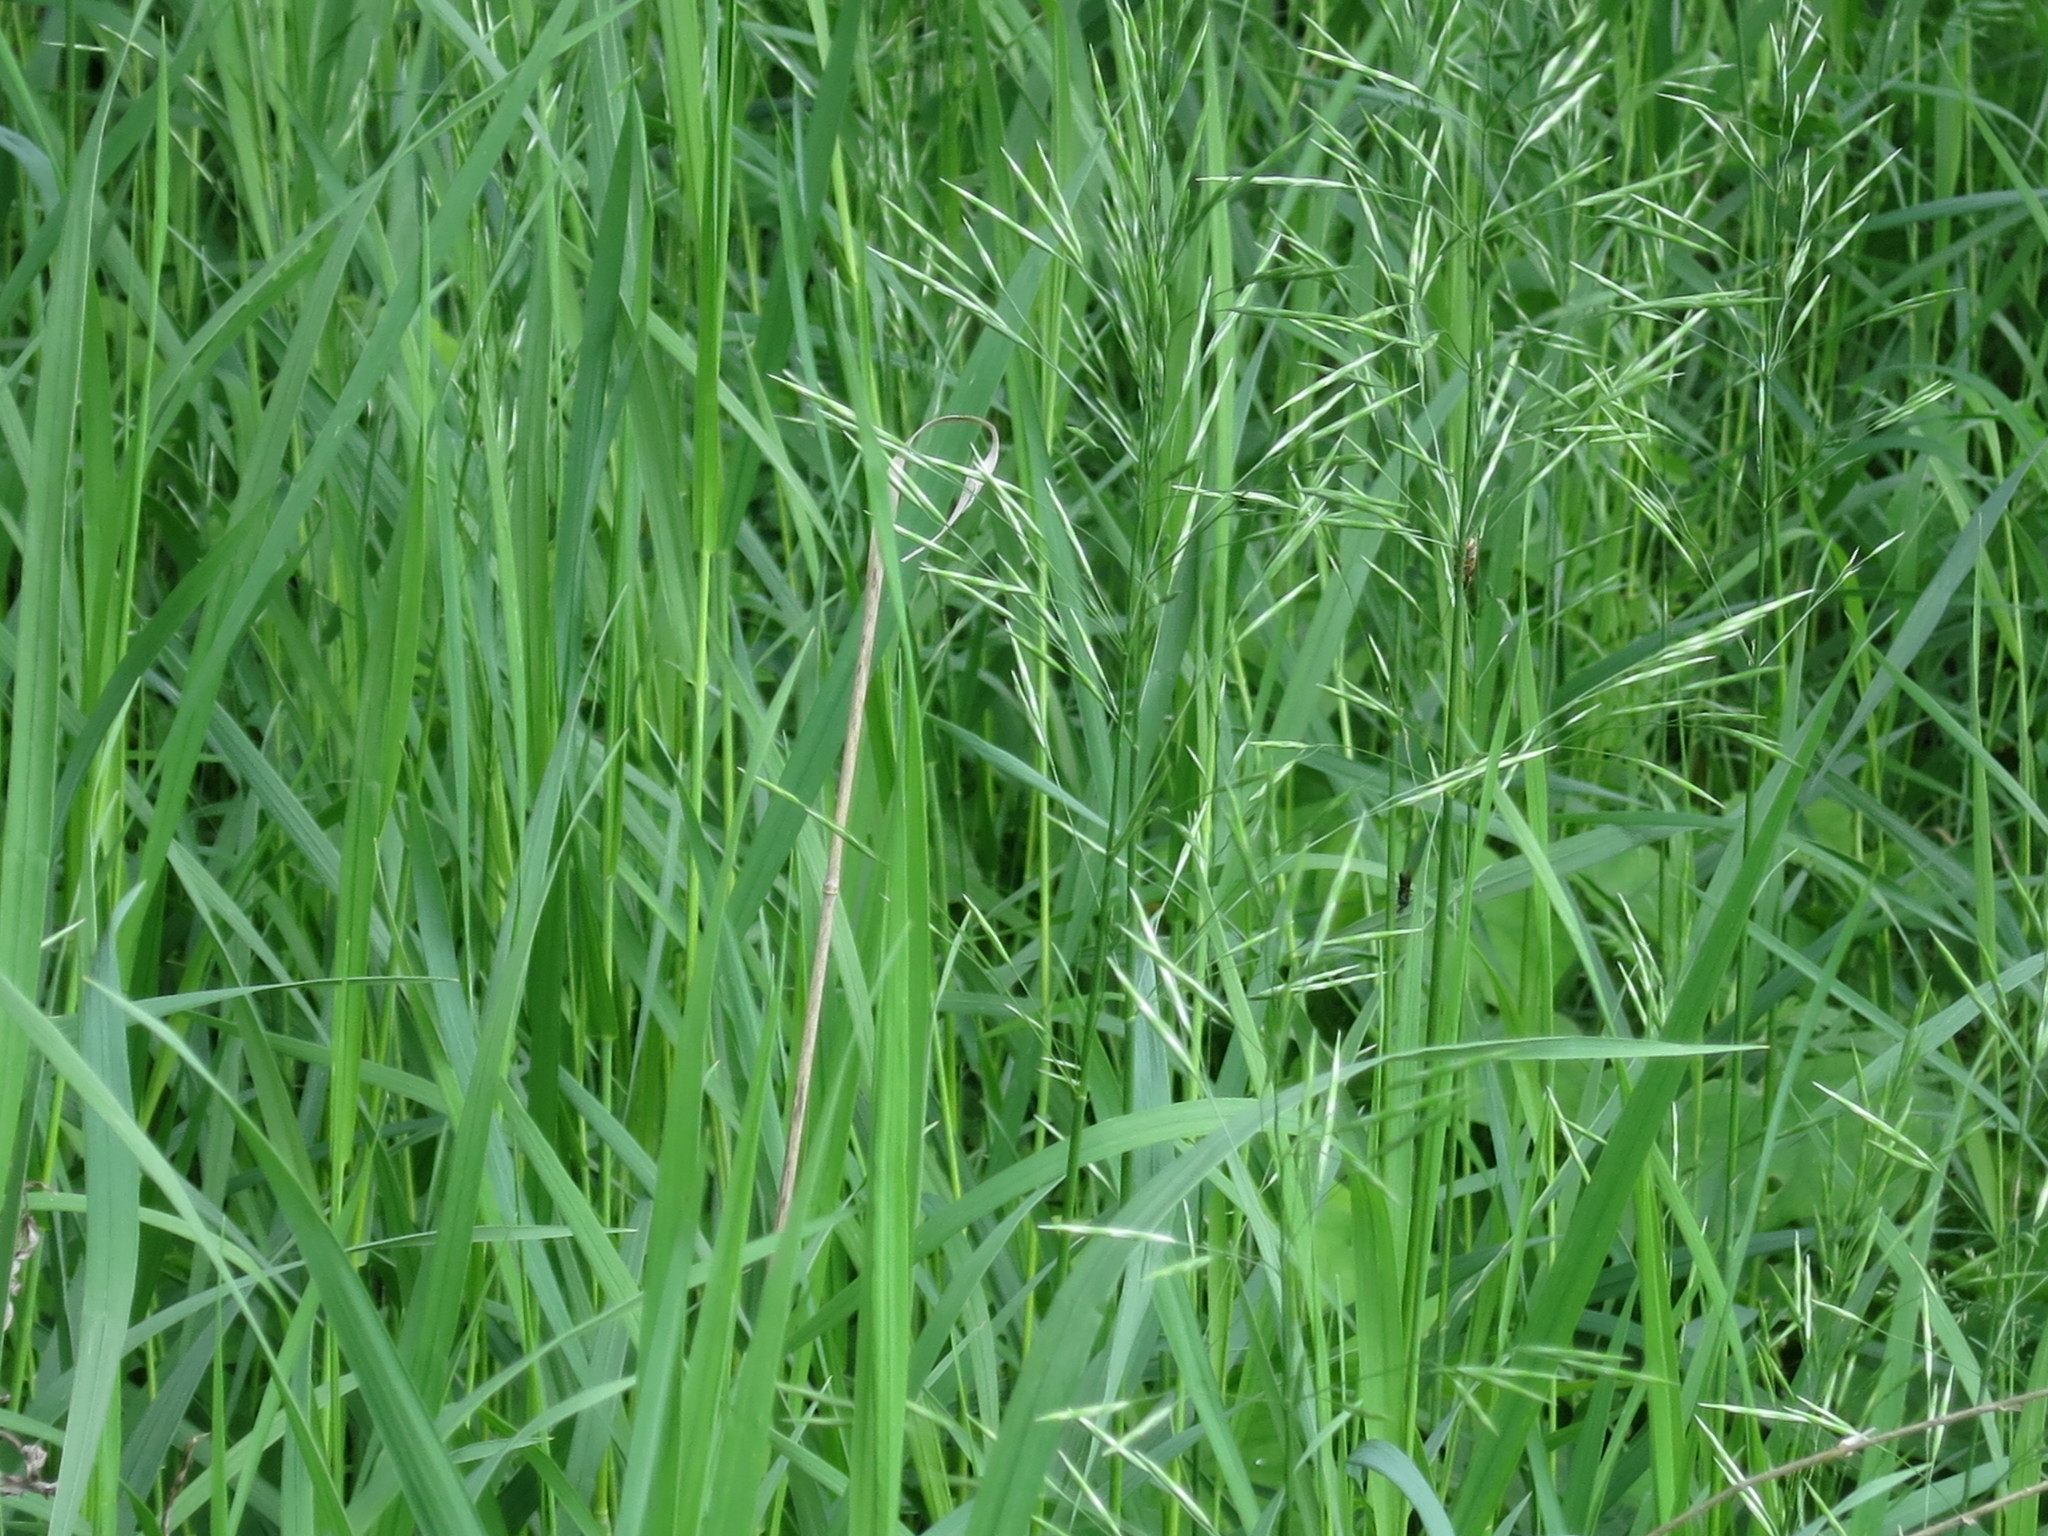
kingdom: Plantae
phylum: Tracheophyta
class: Liliopsida
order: Poales
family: Poaceae
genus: Bromus
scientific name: Bromus inermis
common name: Smooth brome
